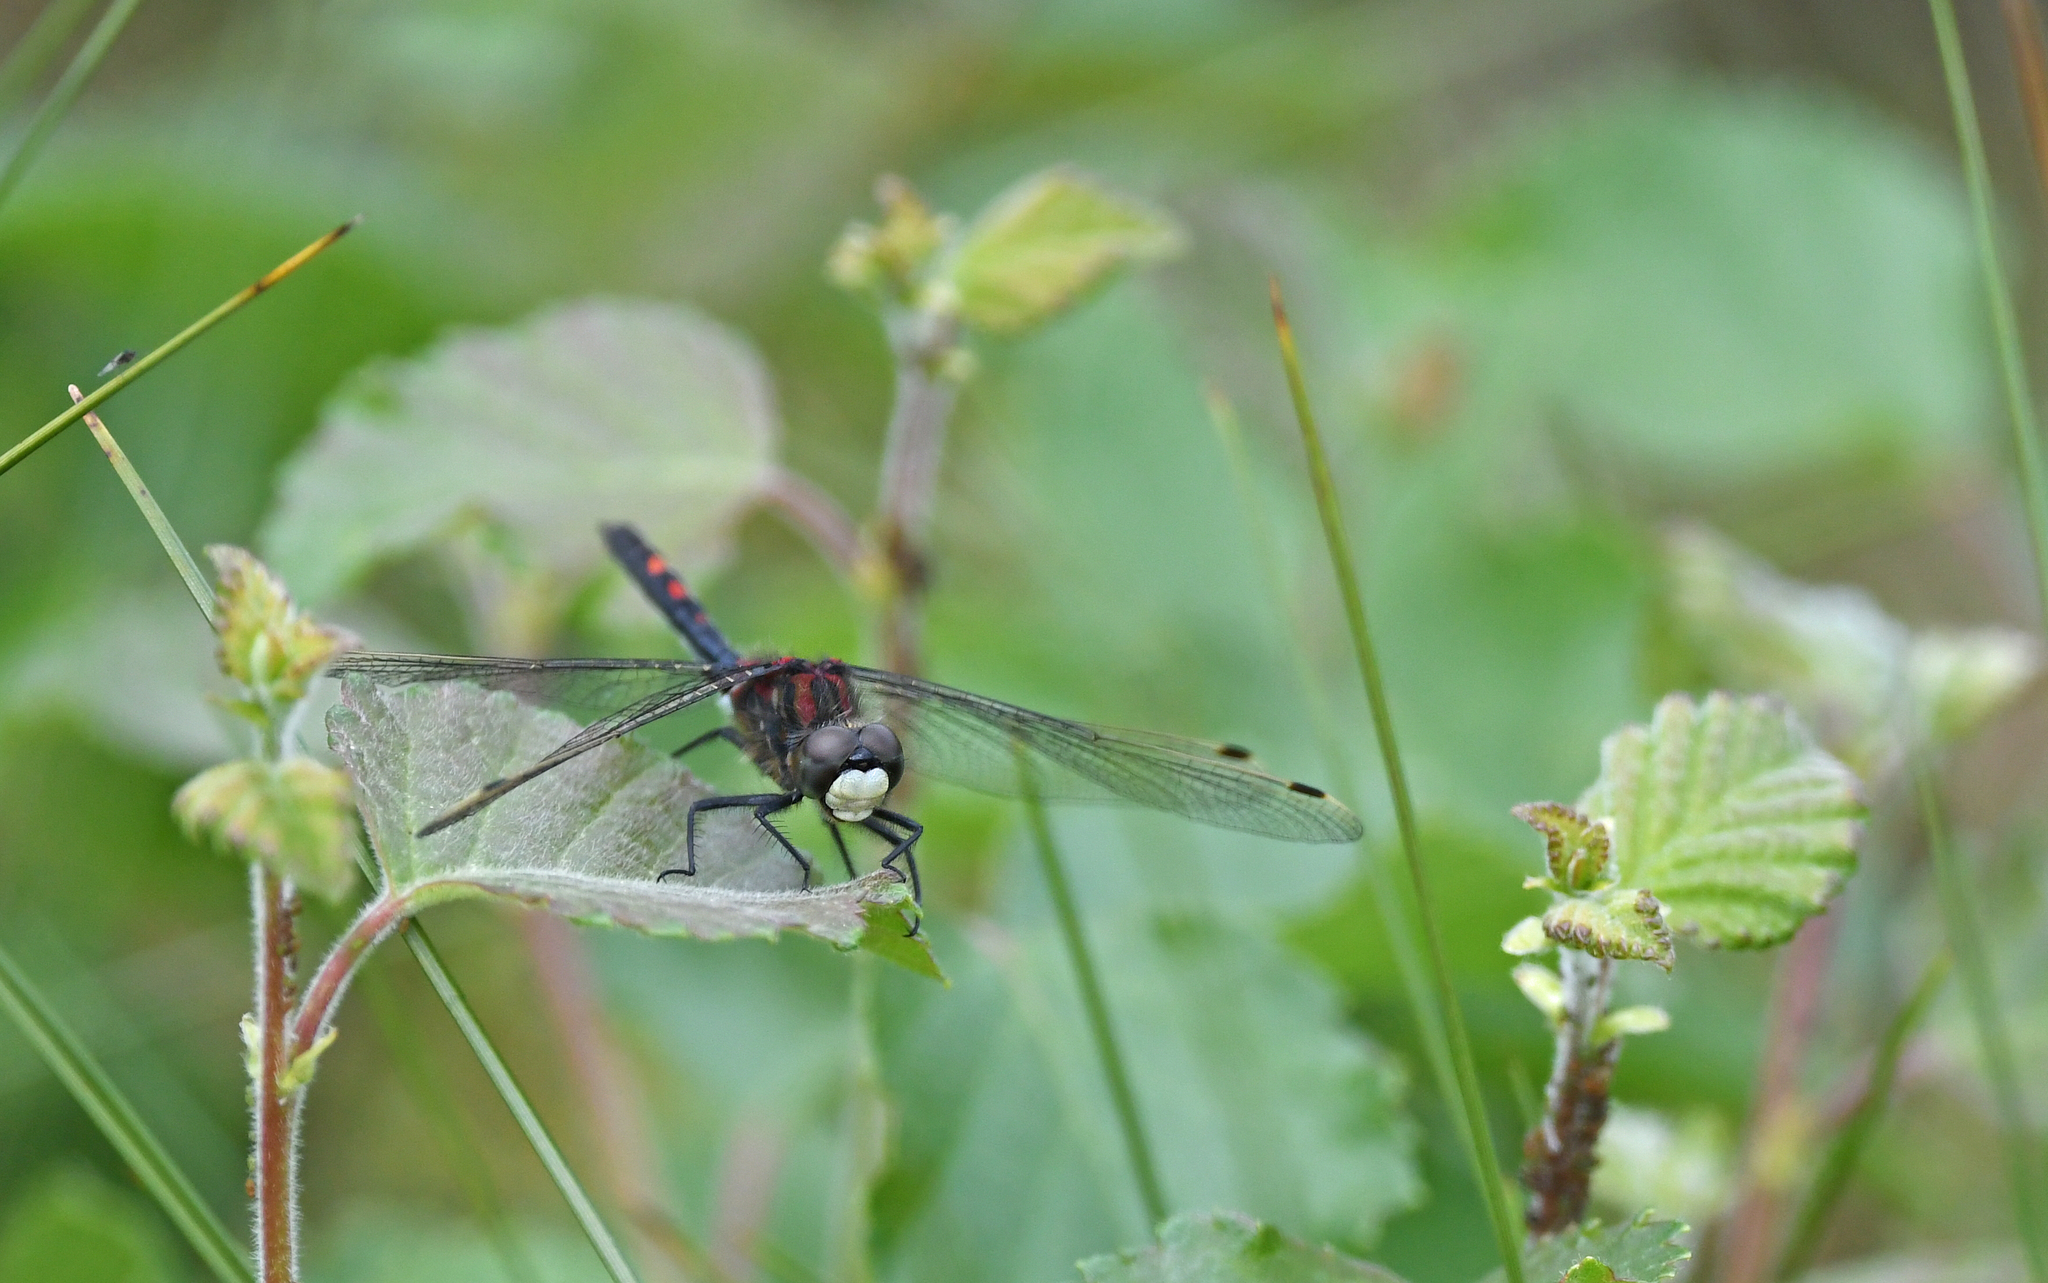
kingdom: Animalia
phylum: Arthropoda
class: Insecta
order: Odonata
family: Libellulidae
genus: Leucorrhinia
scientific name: Leucorrhinia dubia
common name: White-faced darter
